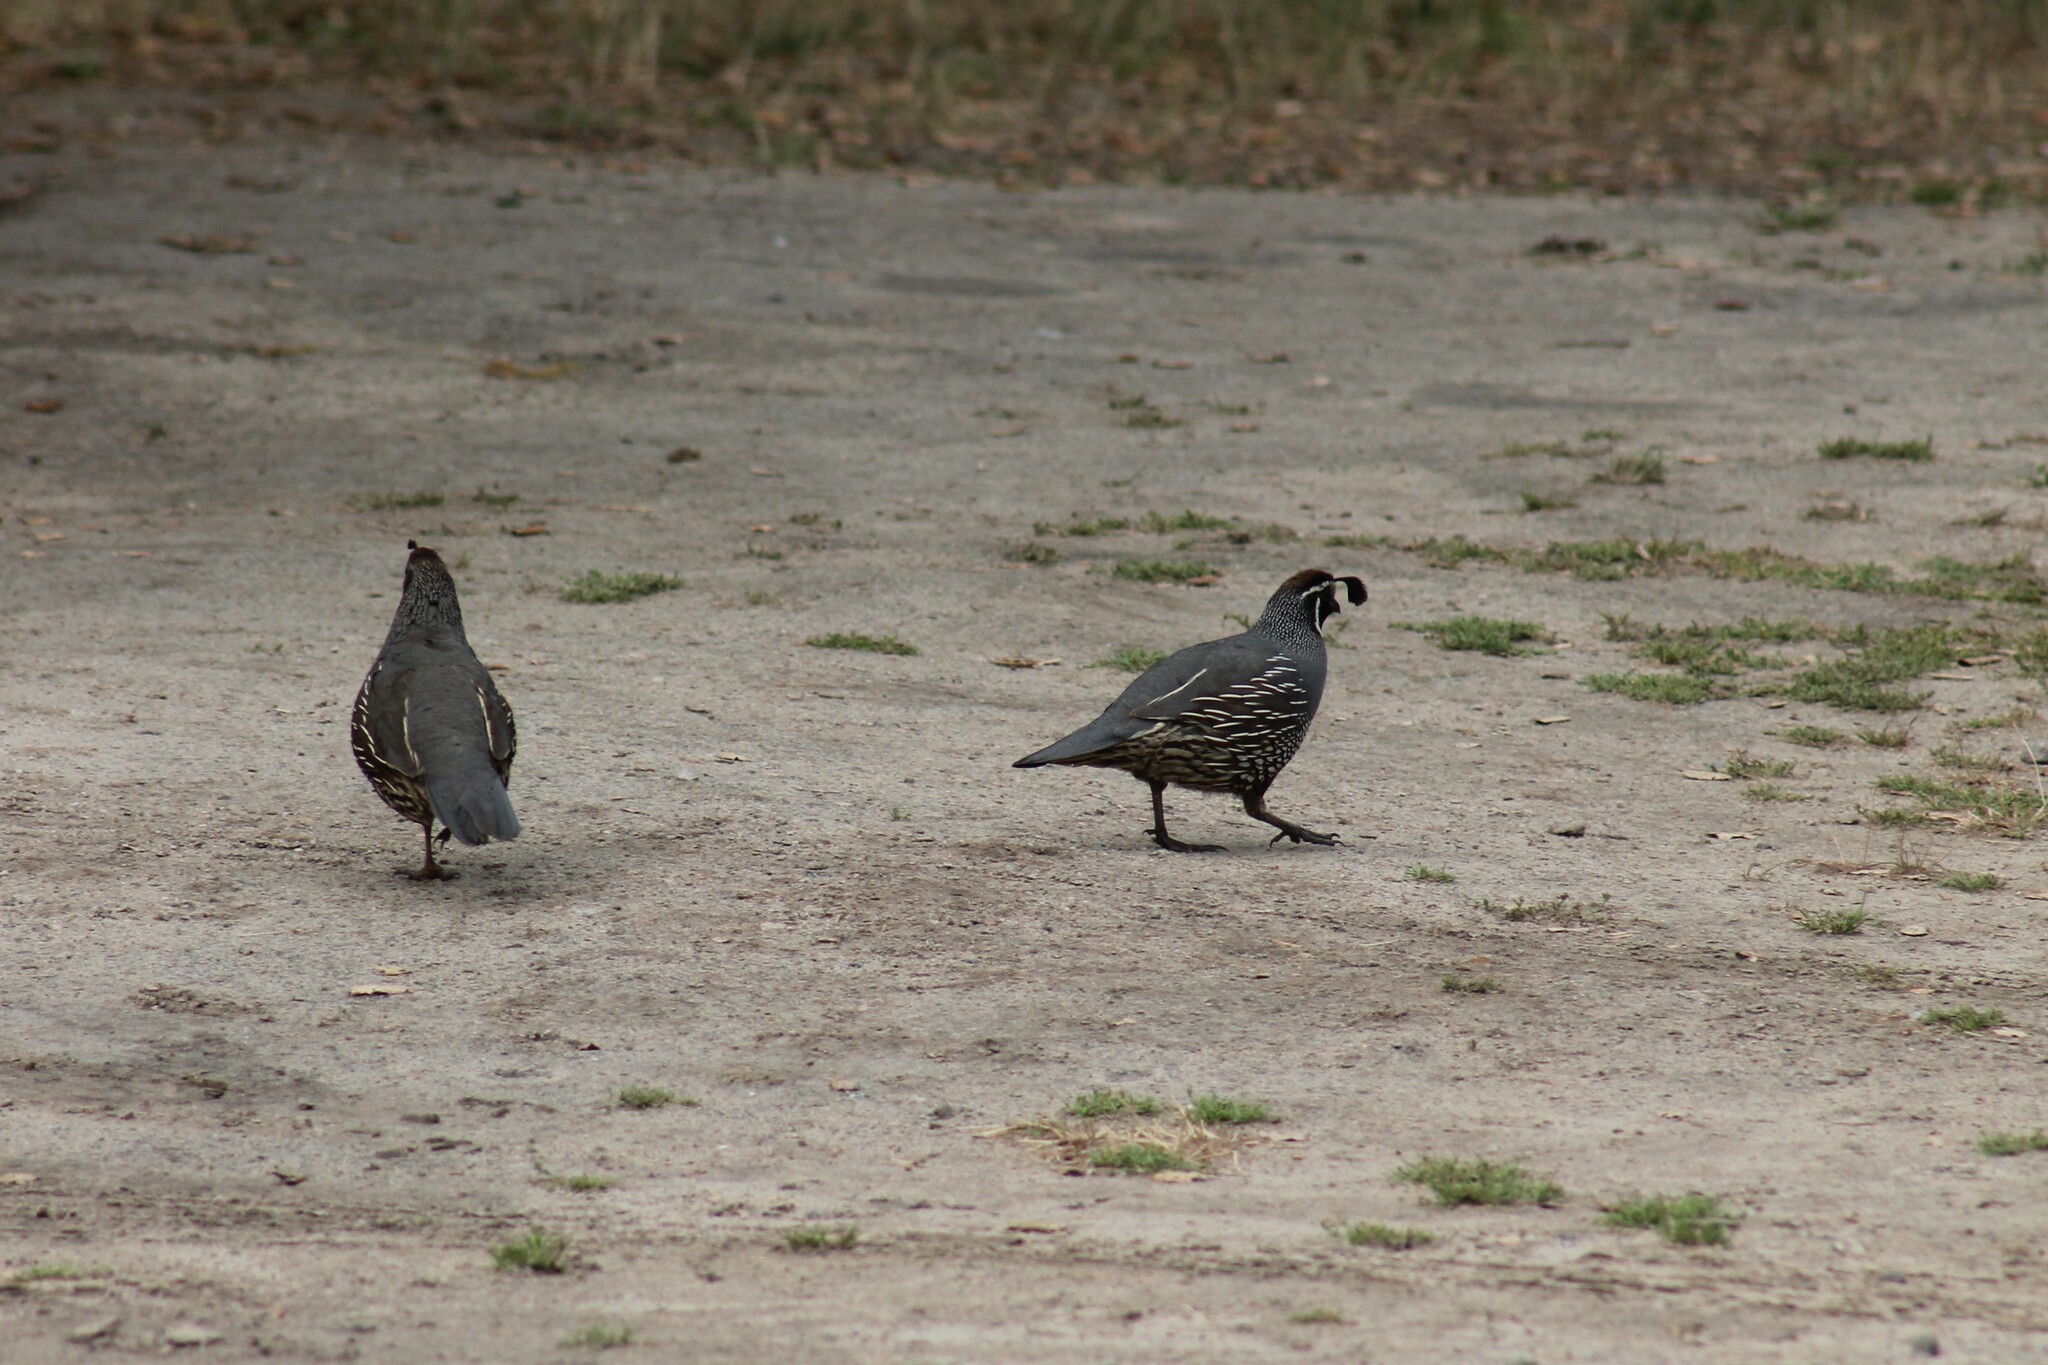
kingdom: Animalia
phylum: Chordata
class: Aves
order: Galliformes
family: Odontophoridae
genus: Callipepla
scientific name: Callipepla californica
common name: California quail
